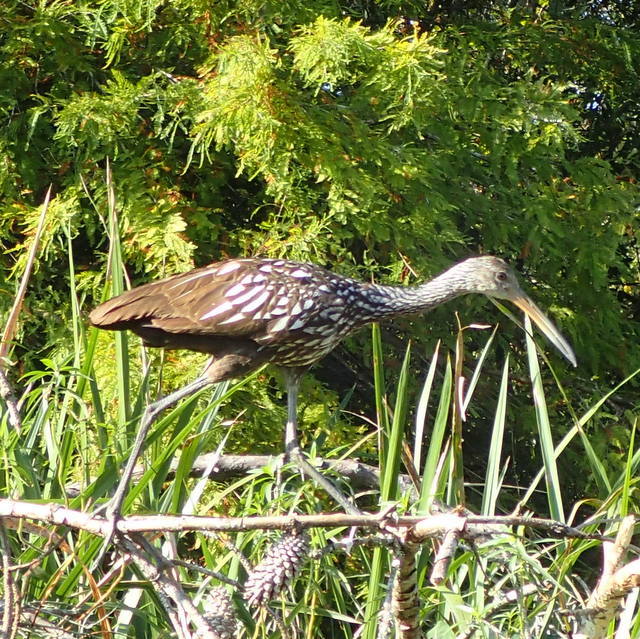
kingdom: Animalia
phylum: Chordata
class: Aves
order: Gruiformes
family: Aramidae
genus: Aramus
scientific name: Aramus guarauna
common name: Limpkin
